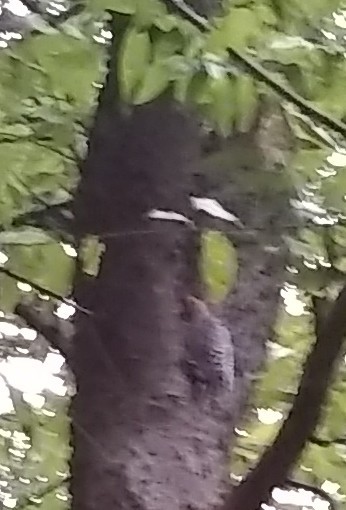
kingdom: Animalia
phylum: Chordata
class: Aves
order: Piciformes
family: Picidae
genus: Melanerpes
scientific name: Melanerpes carolinus
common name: Red-bellied woodpecker
